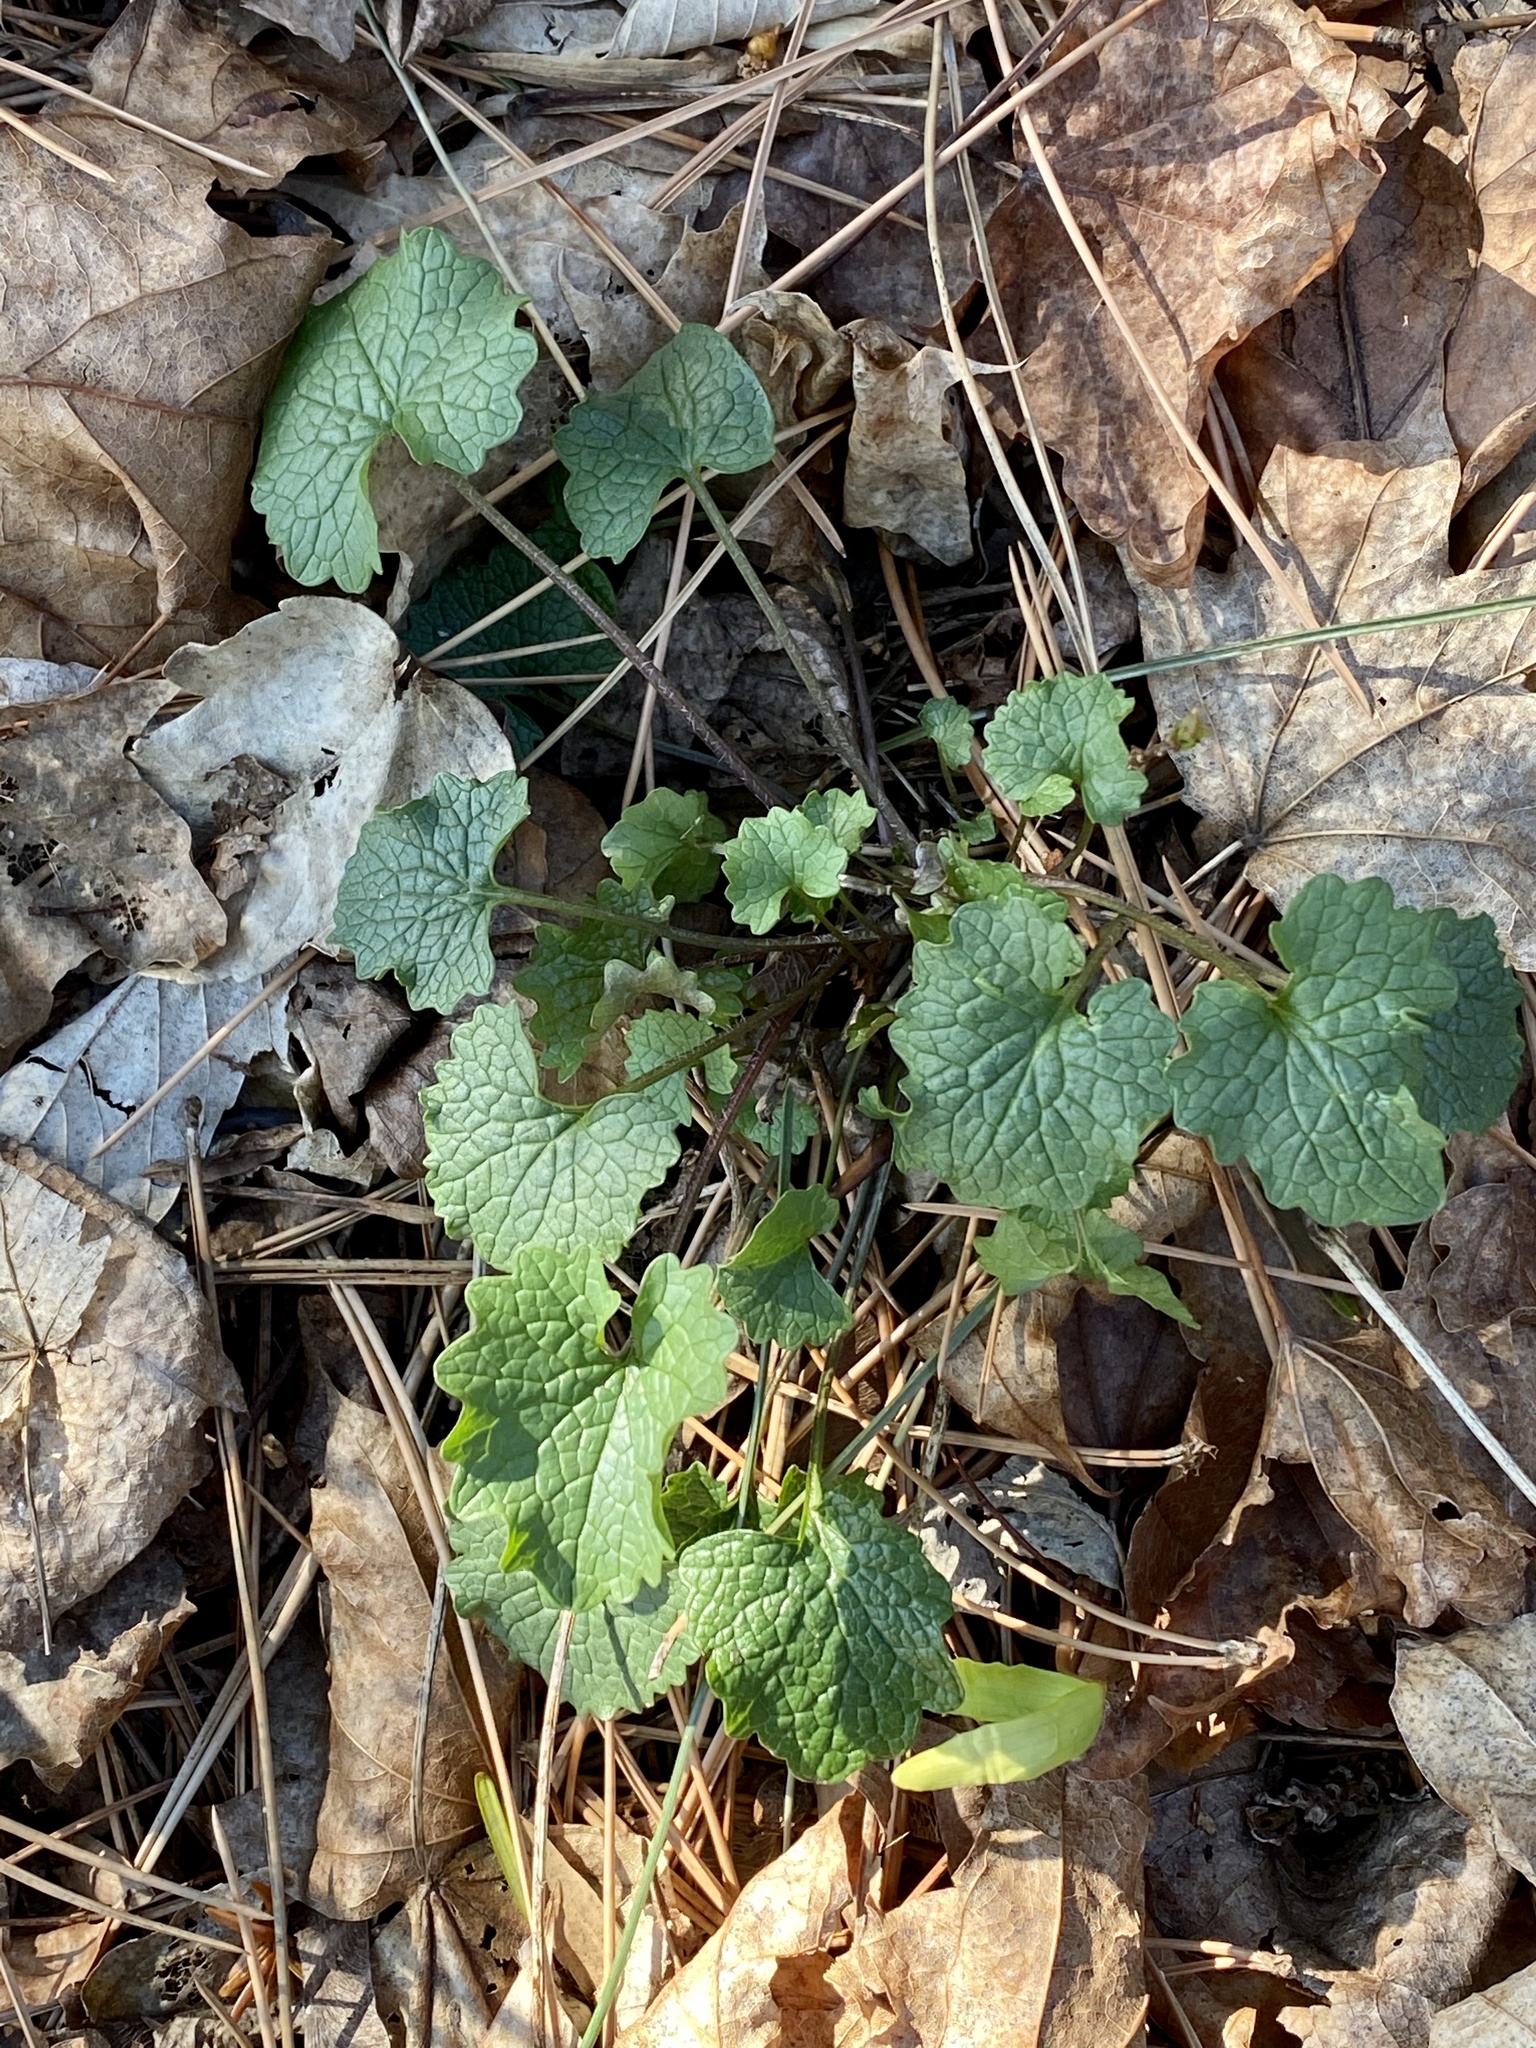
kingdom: Plantae
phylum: Tracheophyta
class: Magnoliopsida
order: Brassicales
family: Brassicaceae
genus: Alliaria
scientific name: Alliaria petiolata
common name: Garlic mustard
